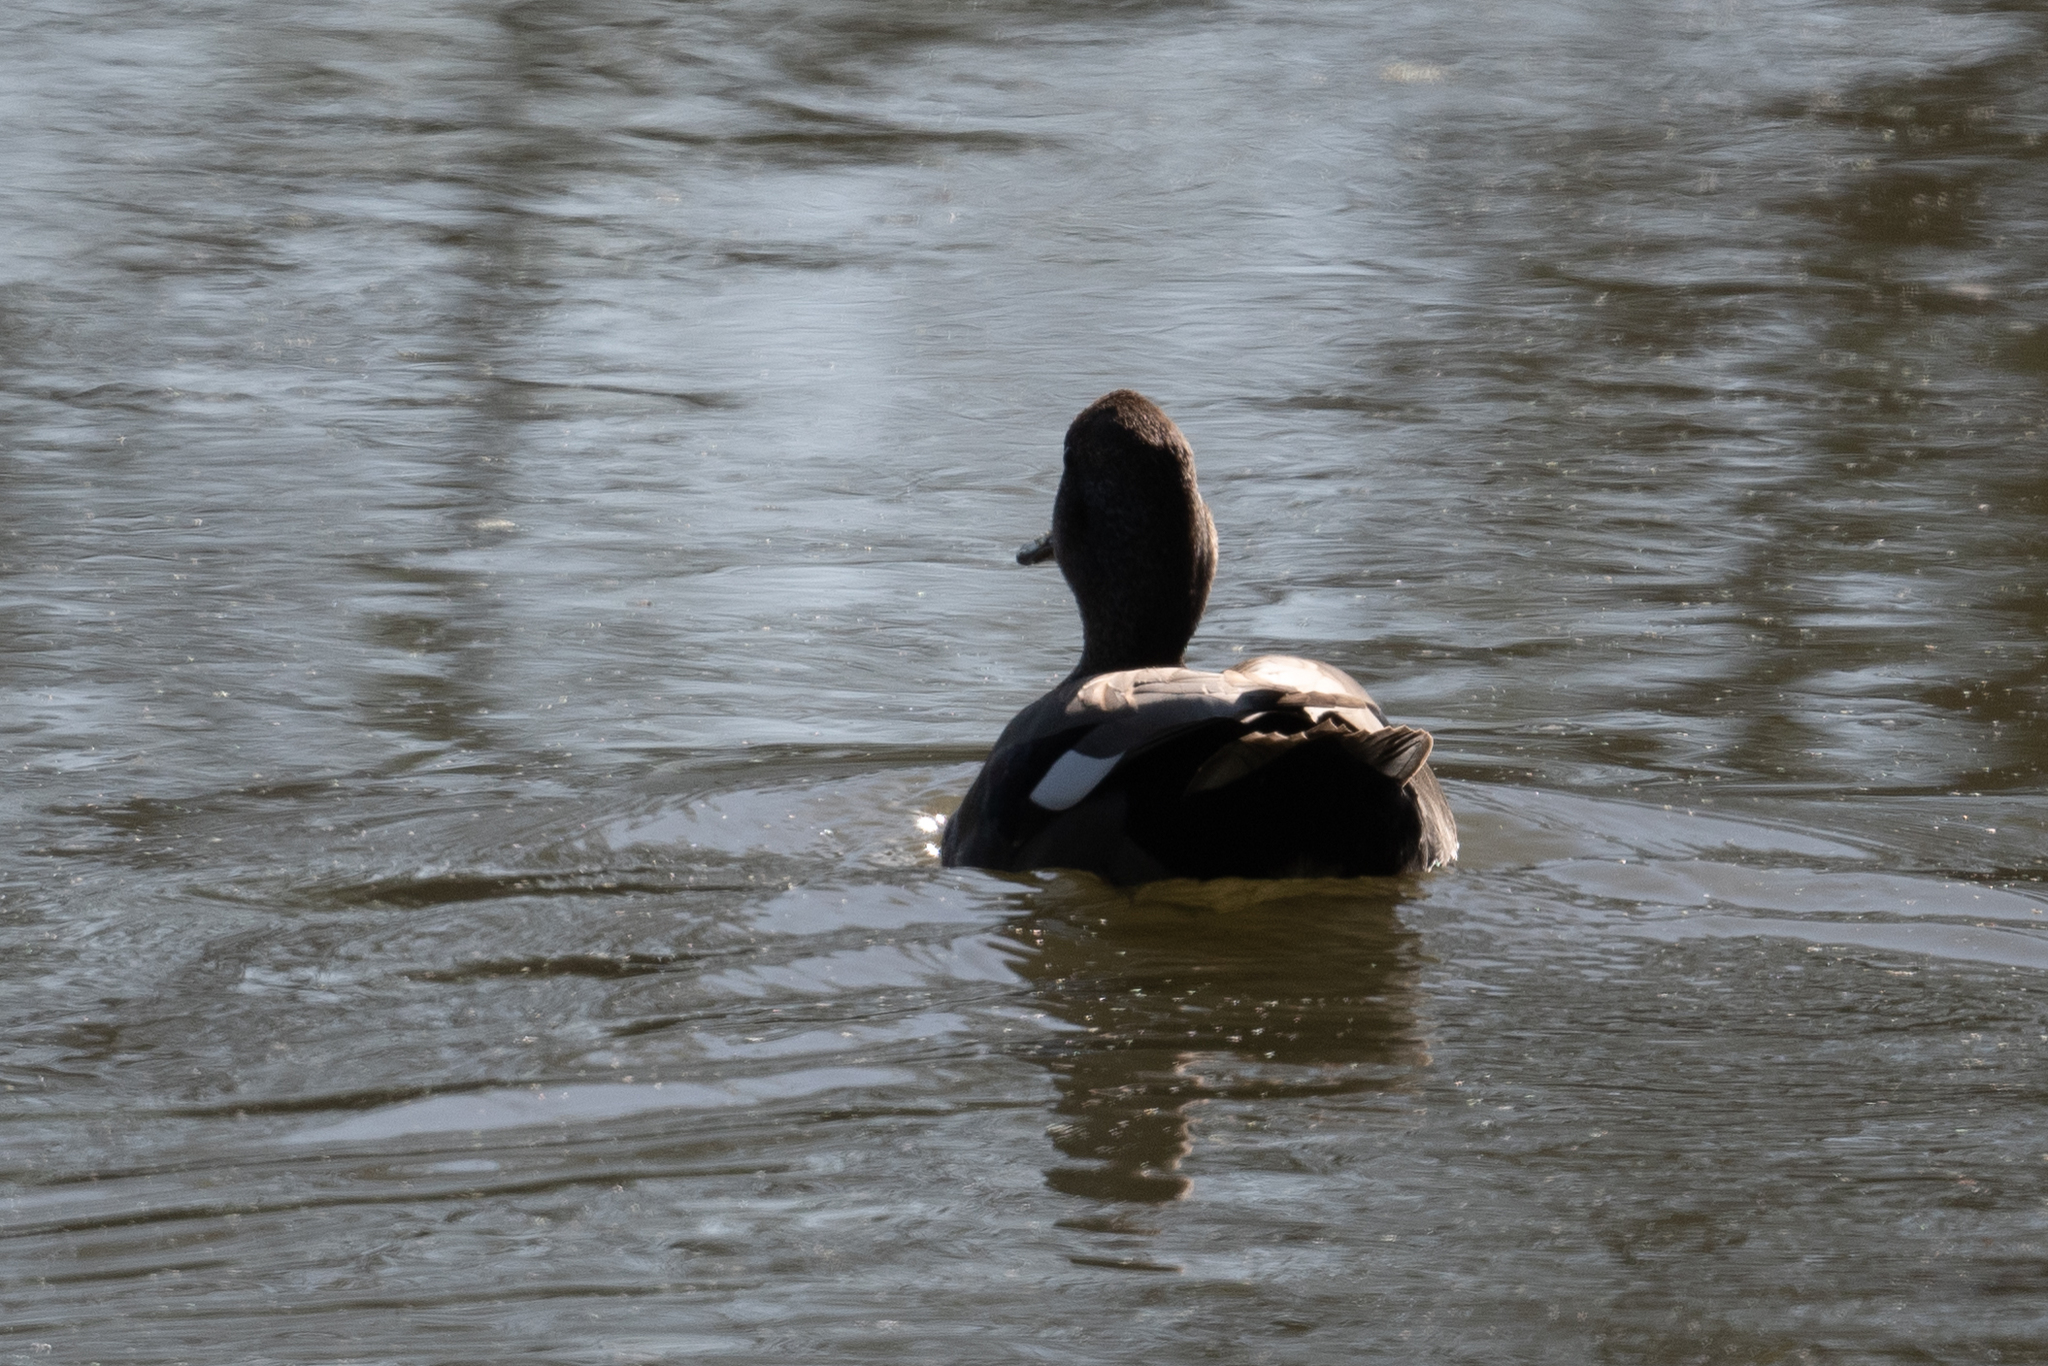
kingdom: Animalia
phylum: Chordata
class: Aves
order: Anseriformes
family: Anatidae
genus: Mareca
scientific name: Mareca strepera
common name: Gadwall
